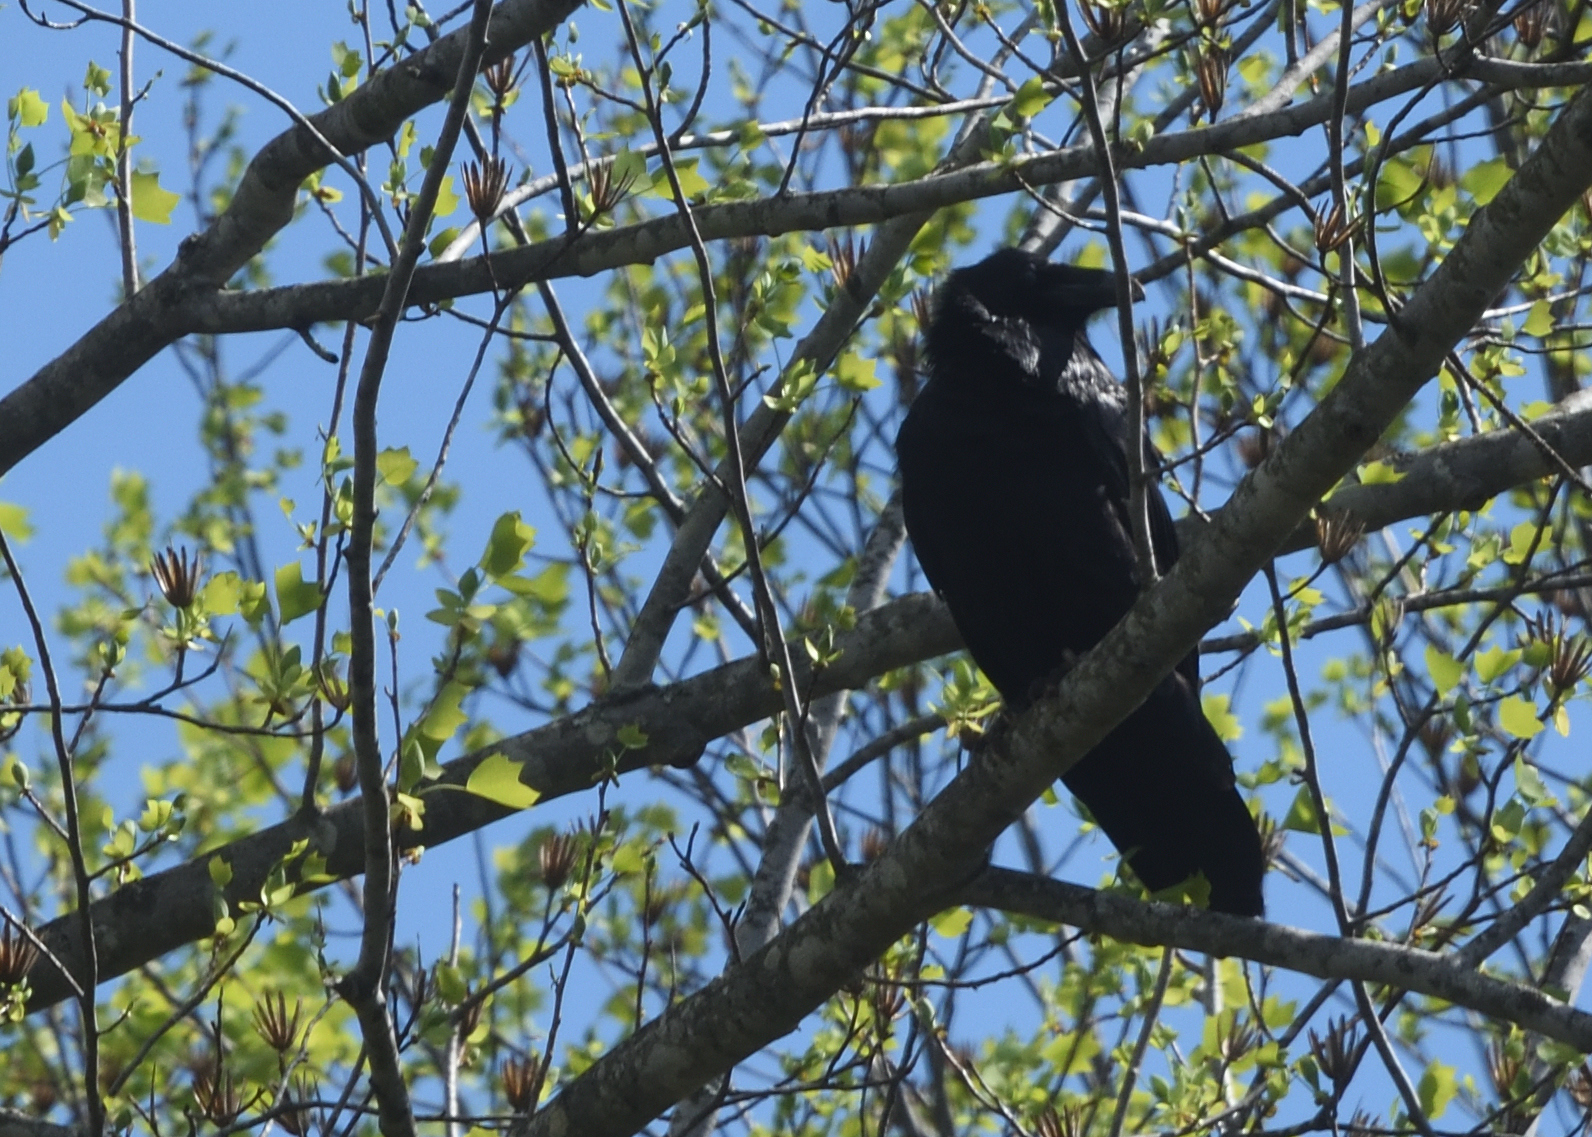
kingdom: Animalia
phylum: Chordata
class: Aves
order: Passeriformes
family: Corvidae
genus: Corvus
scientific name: Corvus corax
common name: Common raven
